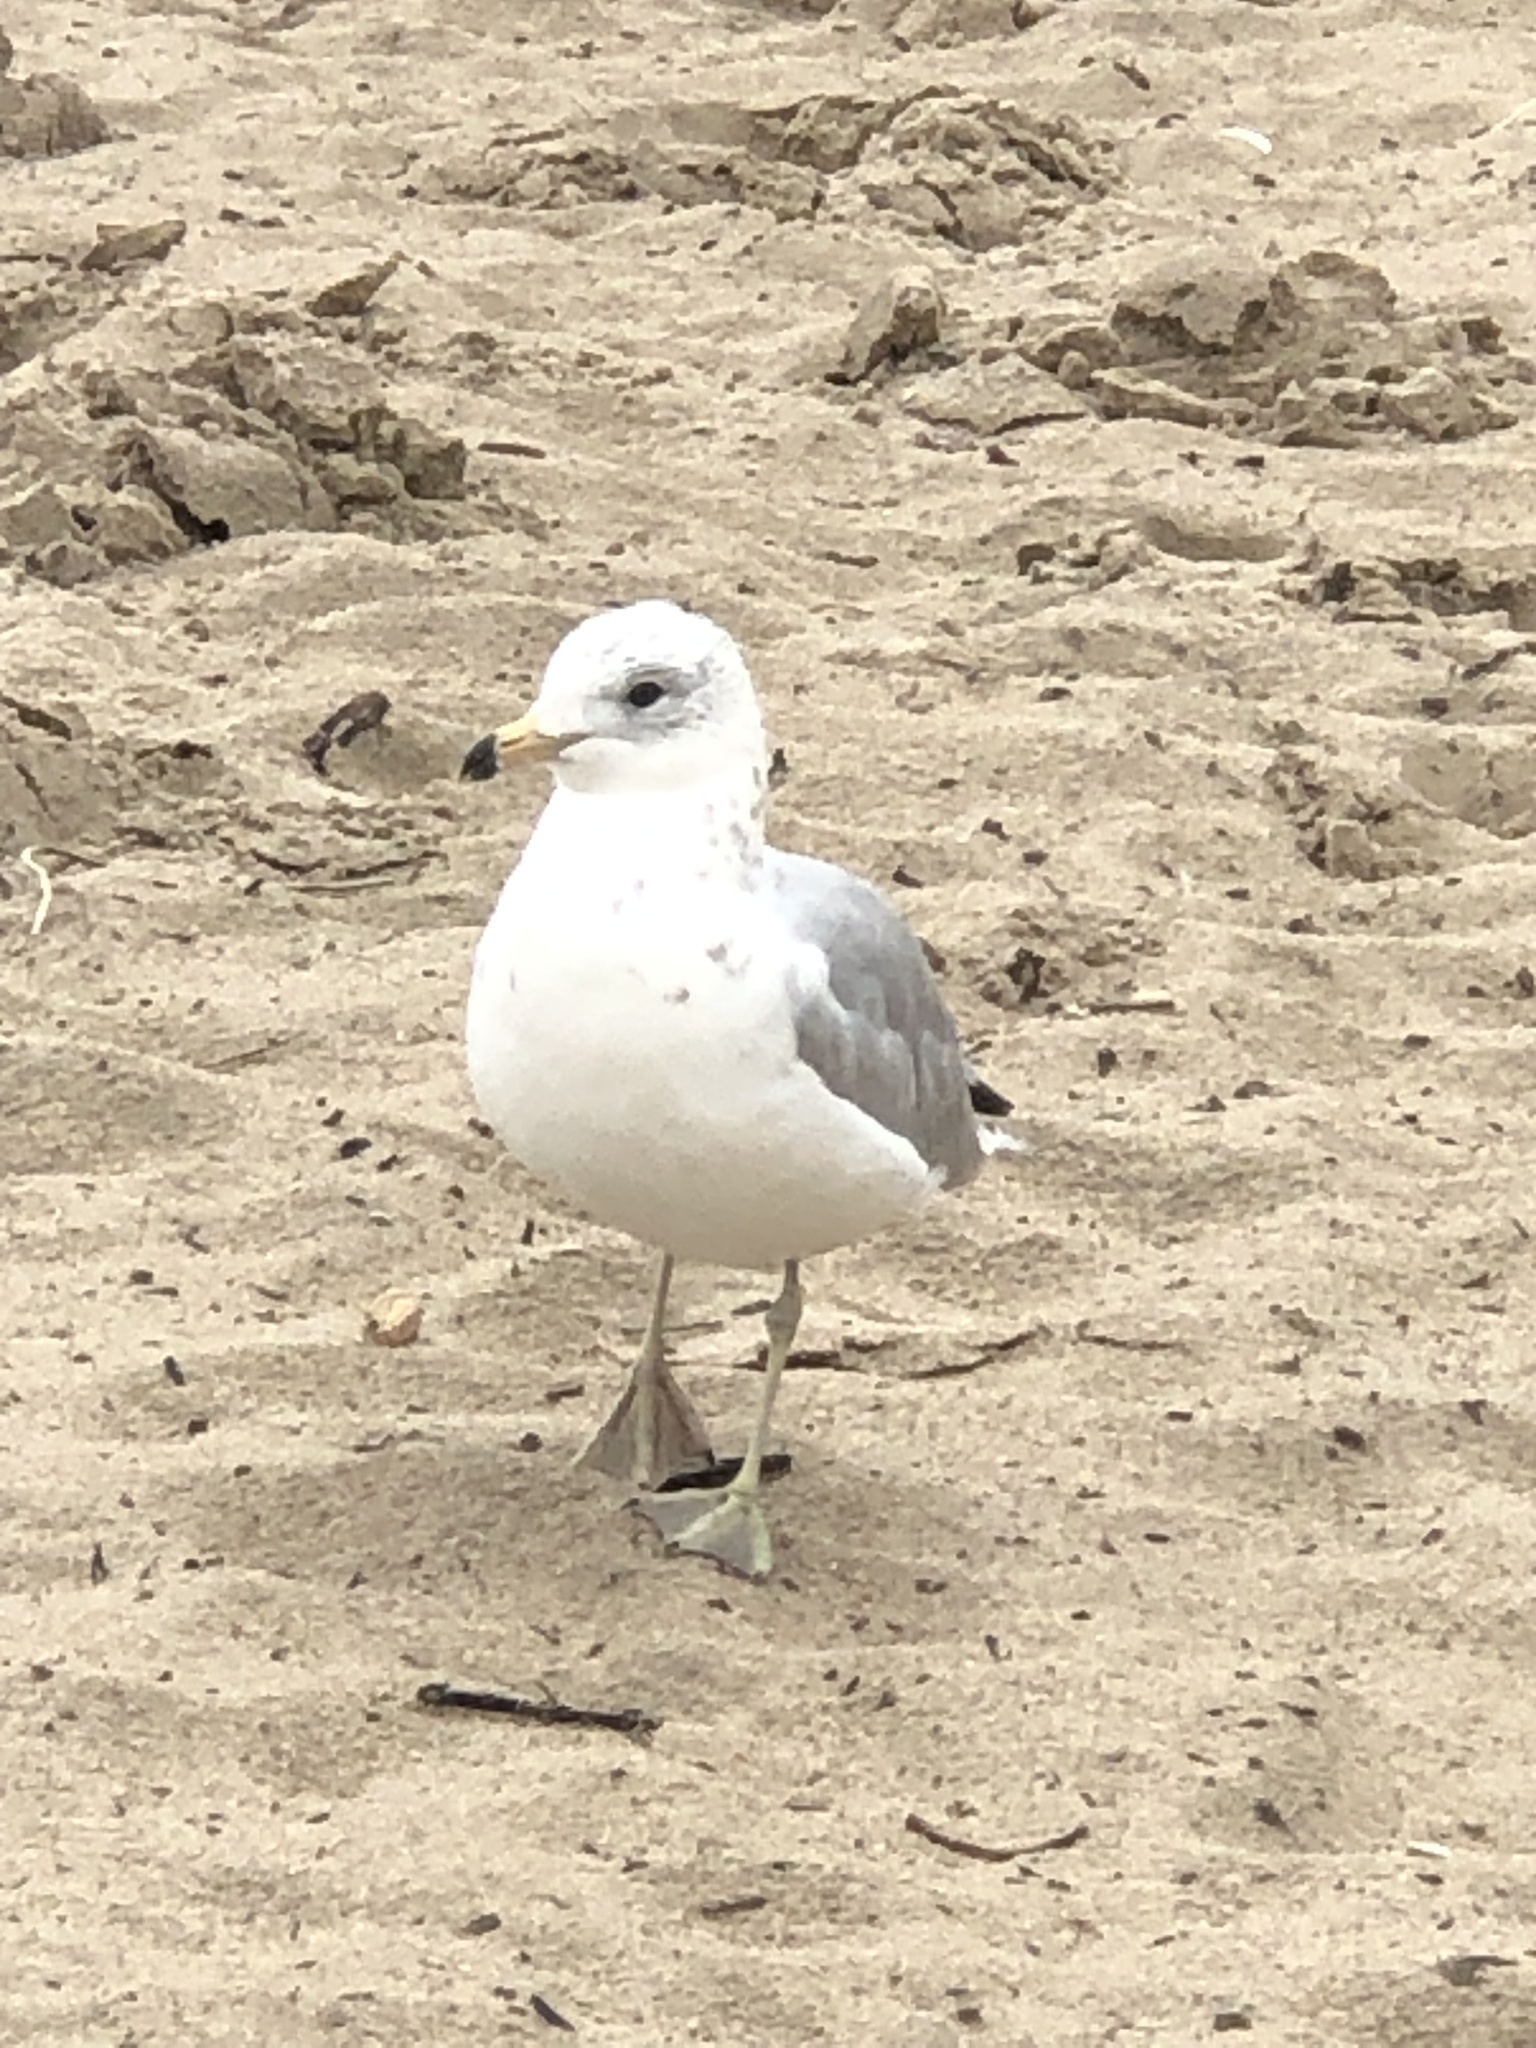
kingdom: Animalia
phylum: Chordata
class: Aves
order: Charadriiformes
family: Laridae
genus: Larus
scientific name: Larus delawarensis
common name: Ring-billed gull
